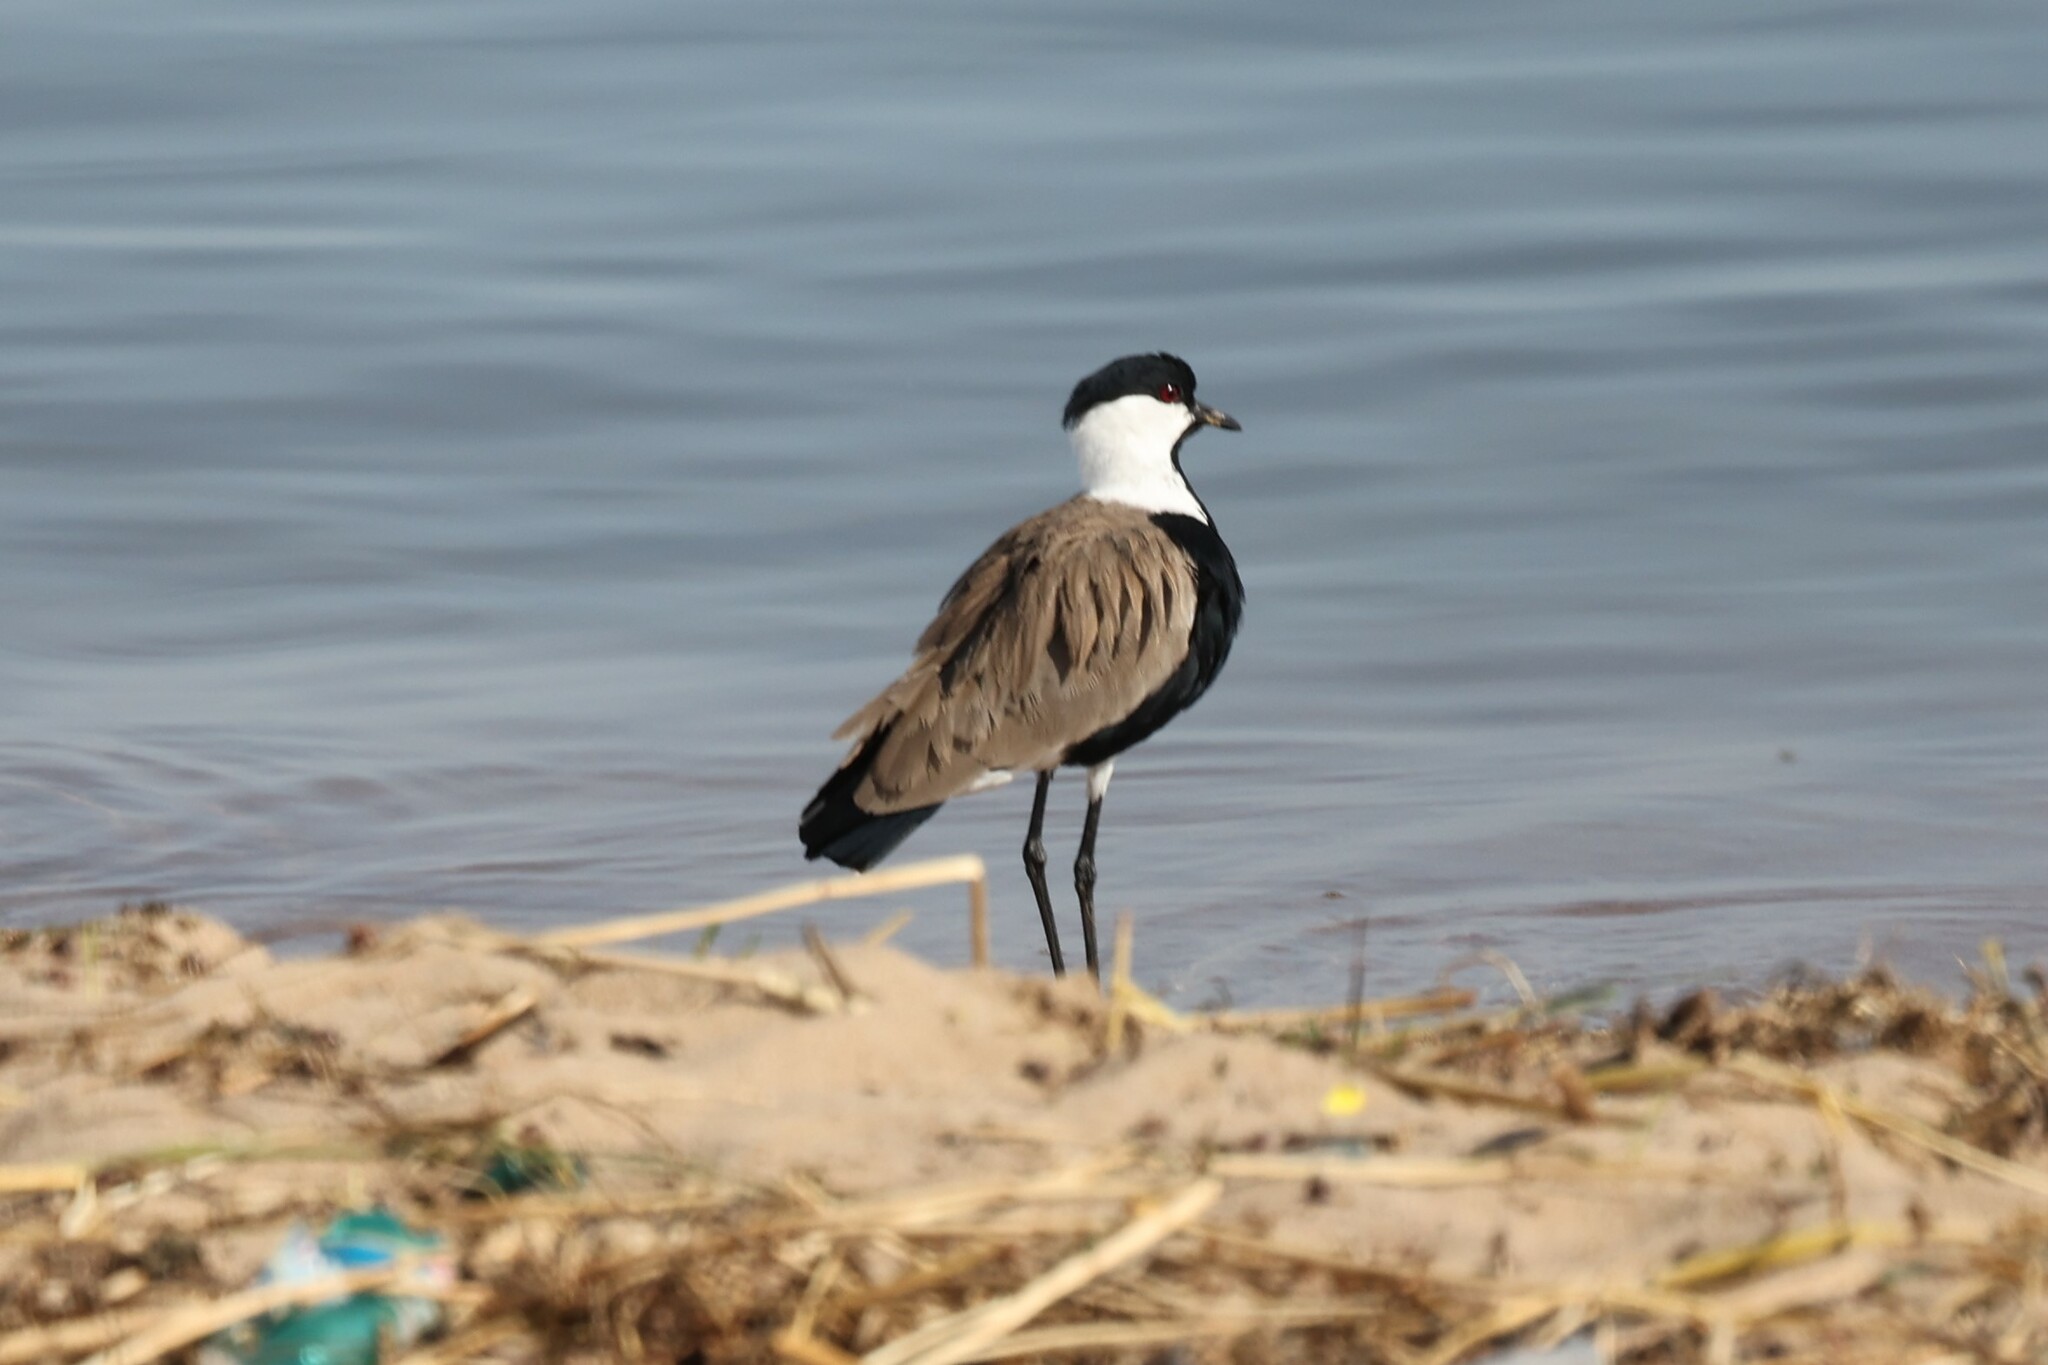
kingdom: Animalia
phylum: Chordata
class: Aves
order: Charadriiformes
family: Charadriidae
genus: Vanellus
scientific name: Vanellus spinosus
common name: Spur-winged lapwing
